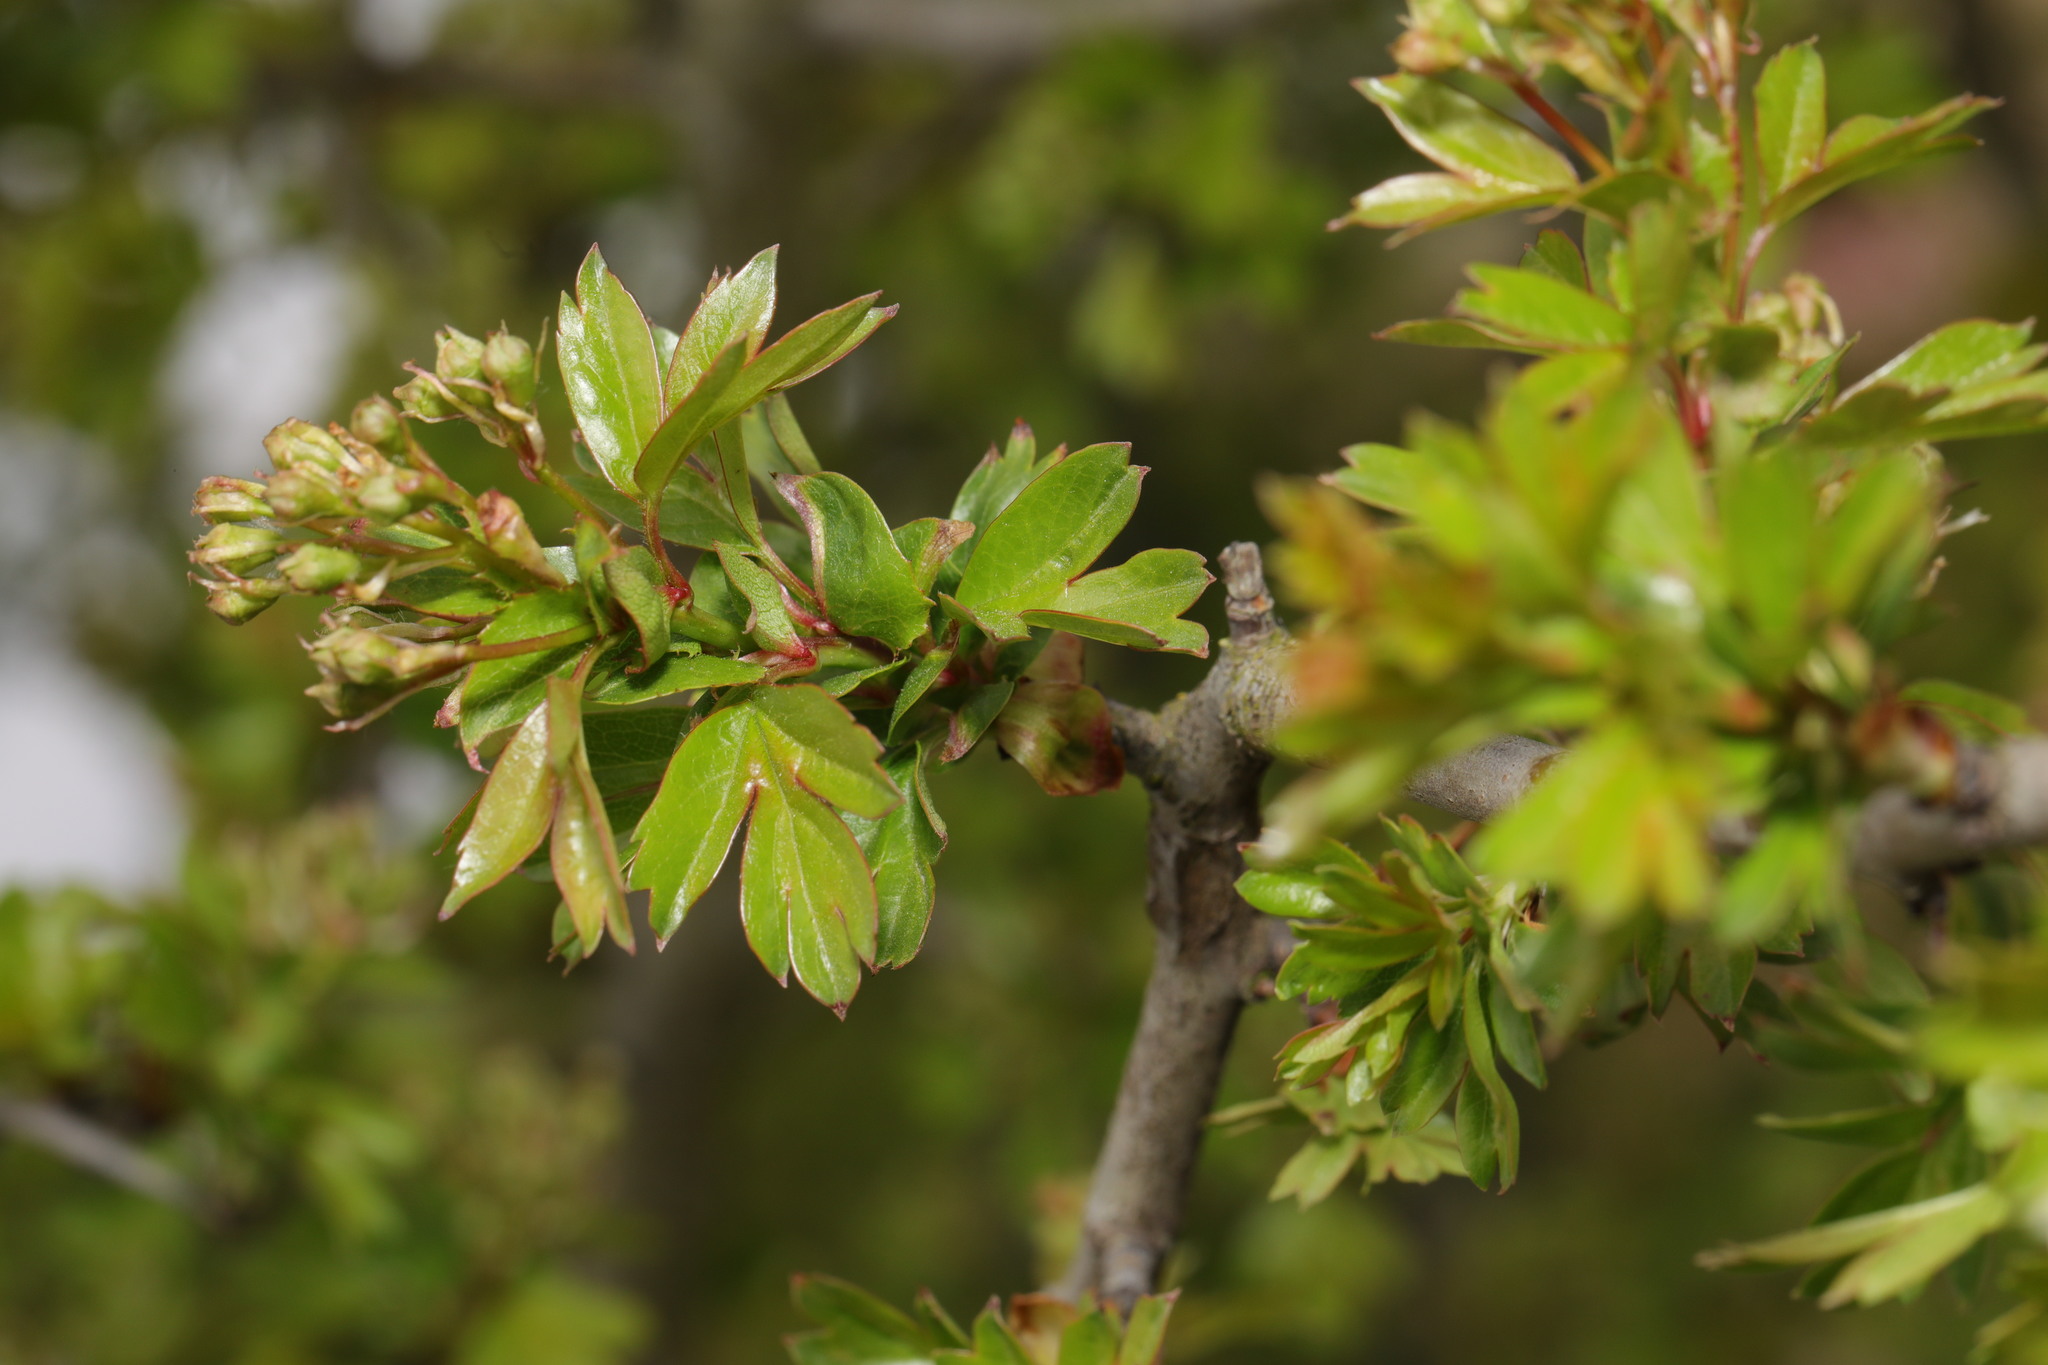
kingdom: Plantae
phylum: Tracheophyta
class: Magnoliopsida
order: Rosales
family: Rosaceae
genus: Crataegus
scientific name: Crataegus monogyna
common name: Hawthorn
